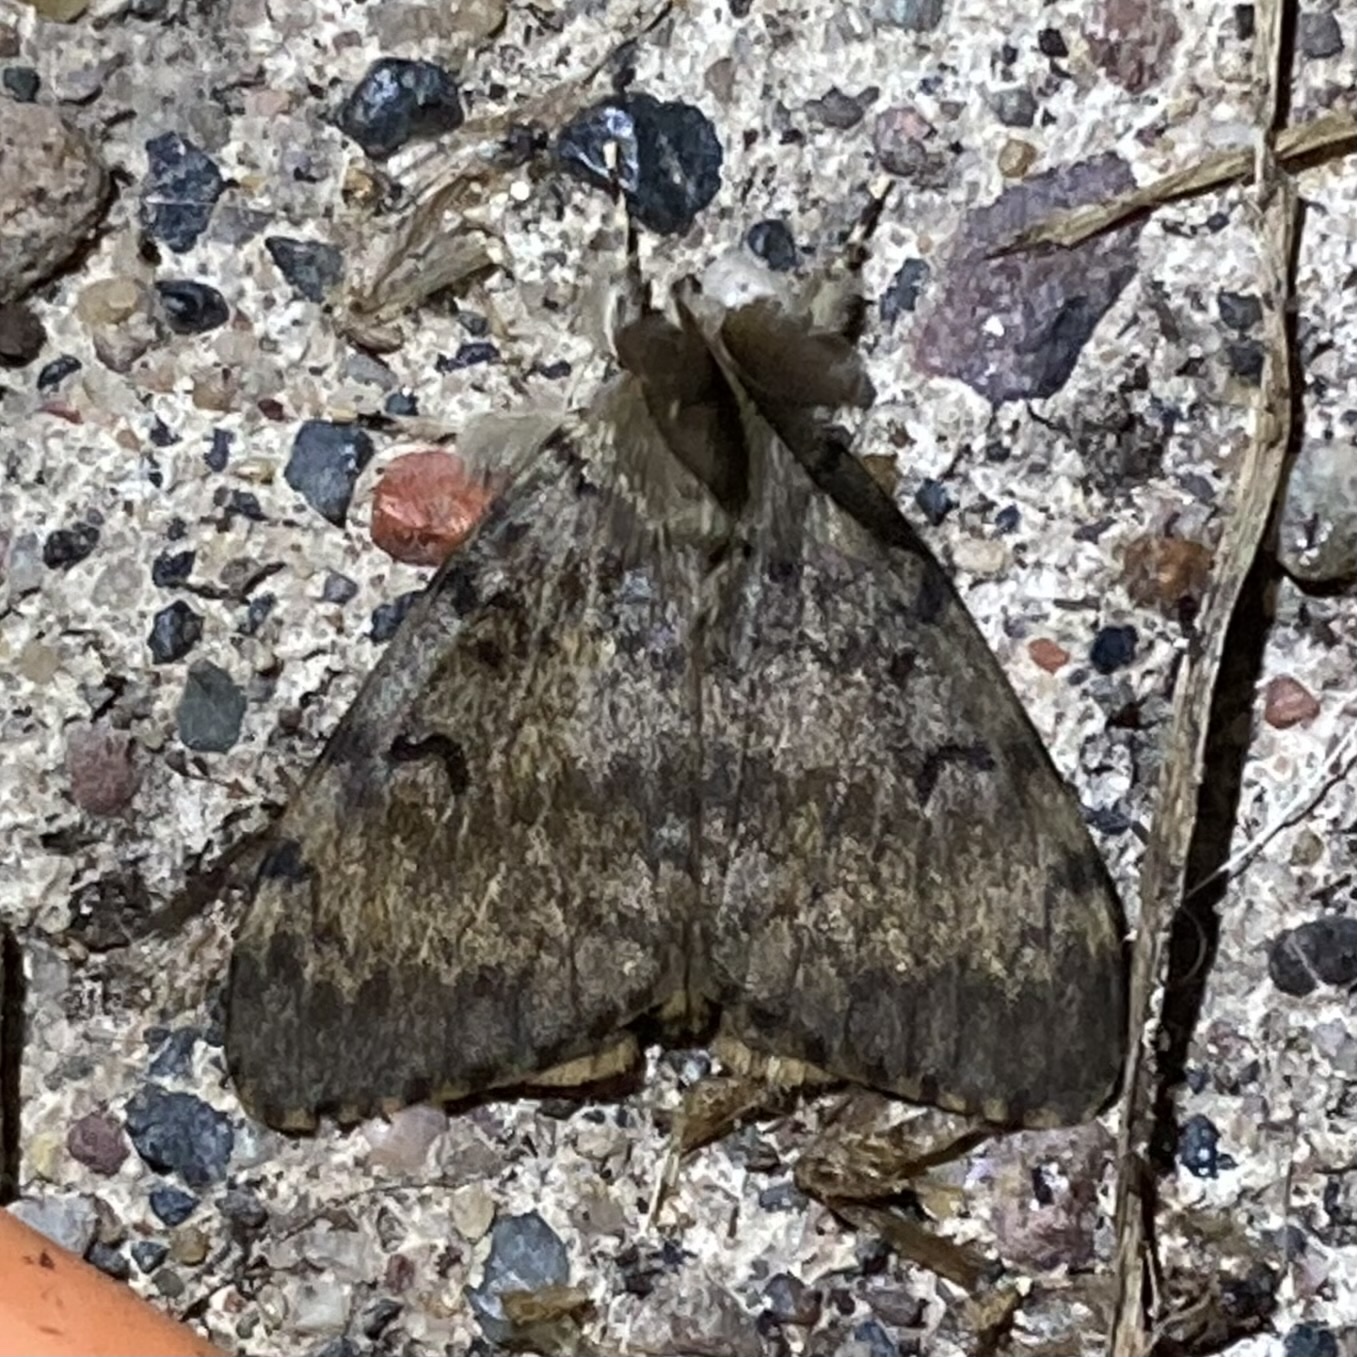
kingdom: Animalia
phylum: Arthropoda
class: Insecta
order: Lepidoptera
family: Erebidae
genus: Lymantria
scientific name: Lymantria dispar
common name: Gypsy moth
